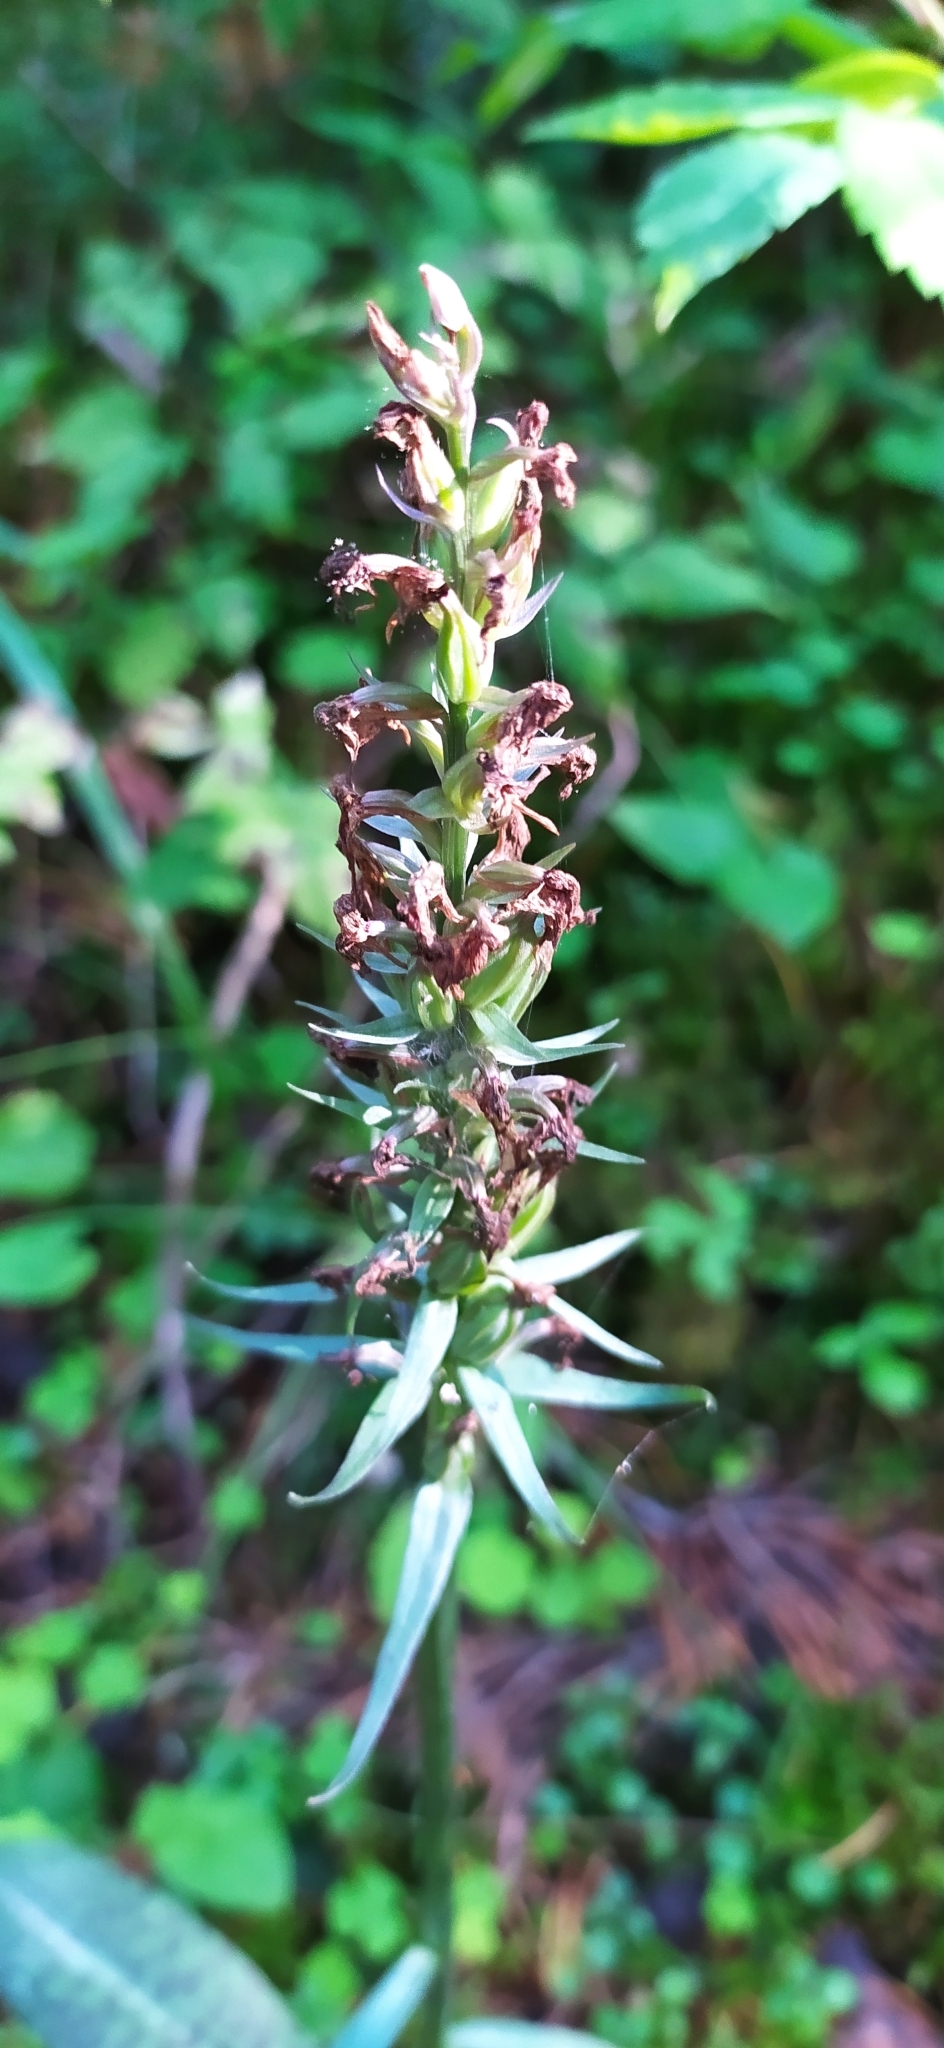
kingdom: Plantae
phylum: Tracheophyta
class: Liliopsida
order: Asparagales
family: Orchidaceae
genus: Dactylorhiza
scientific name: Dactylorhiza maculata
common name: Heath spotted-orchid
